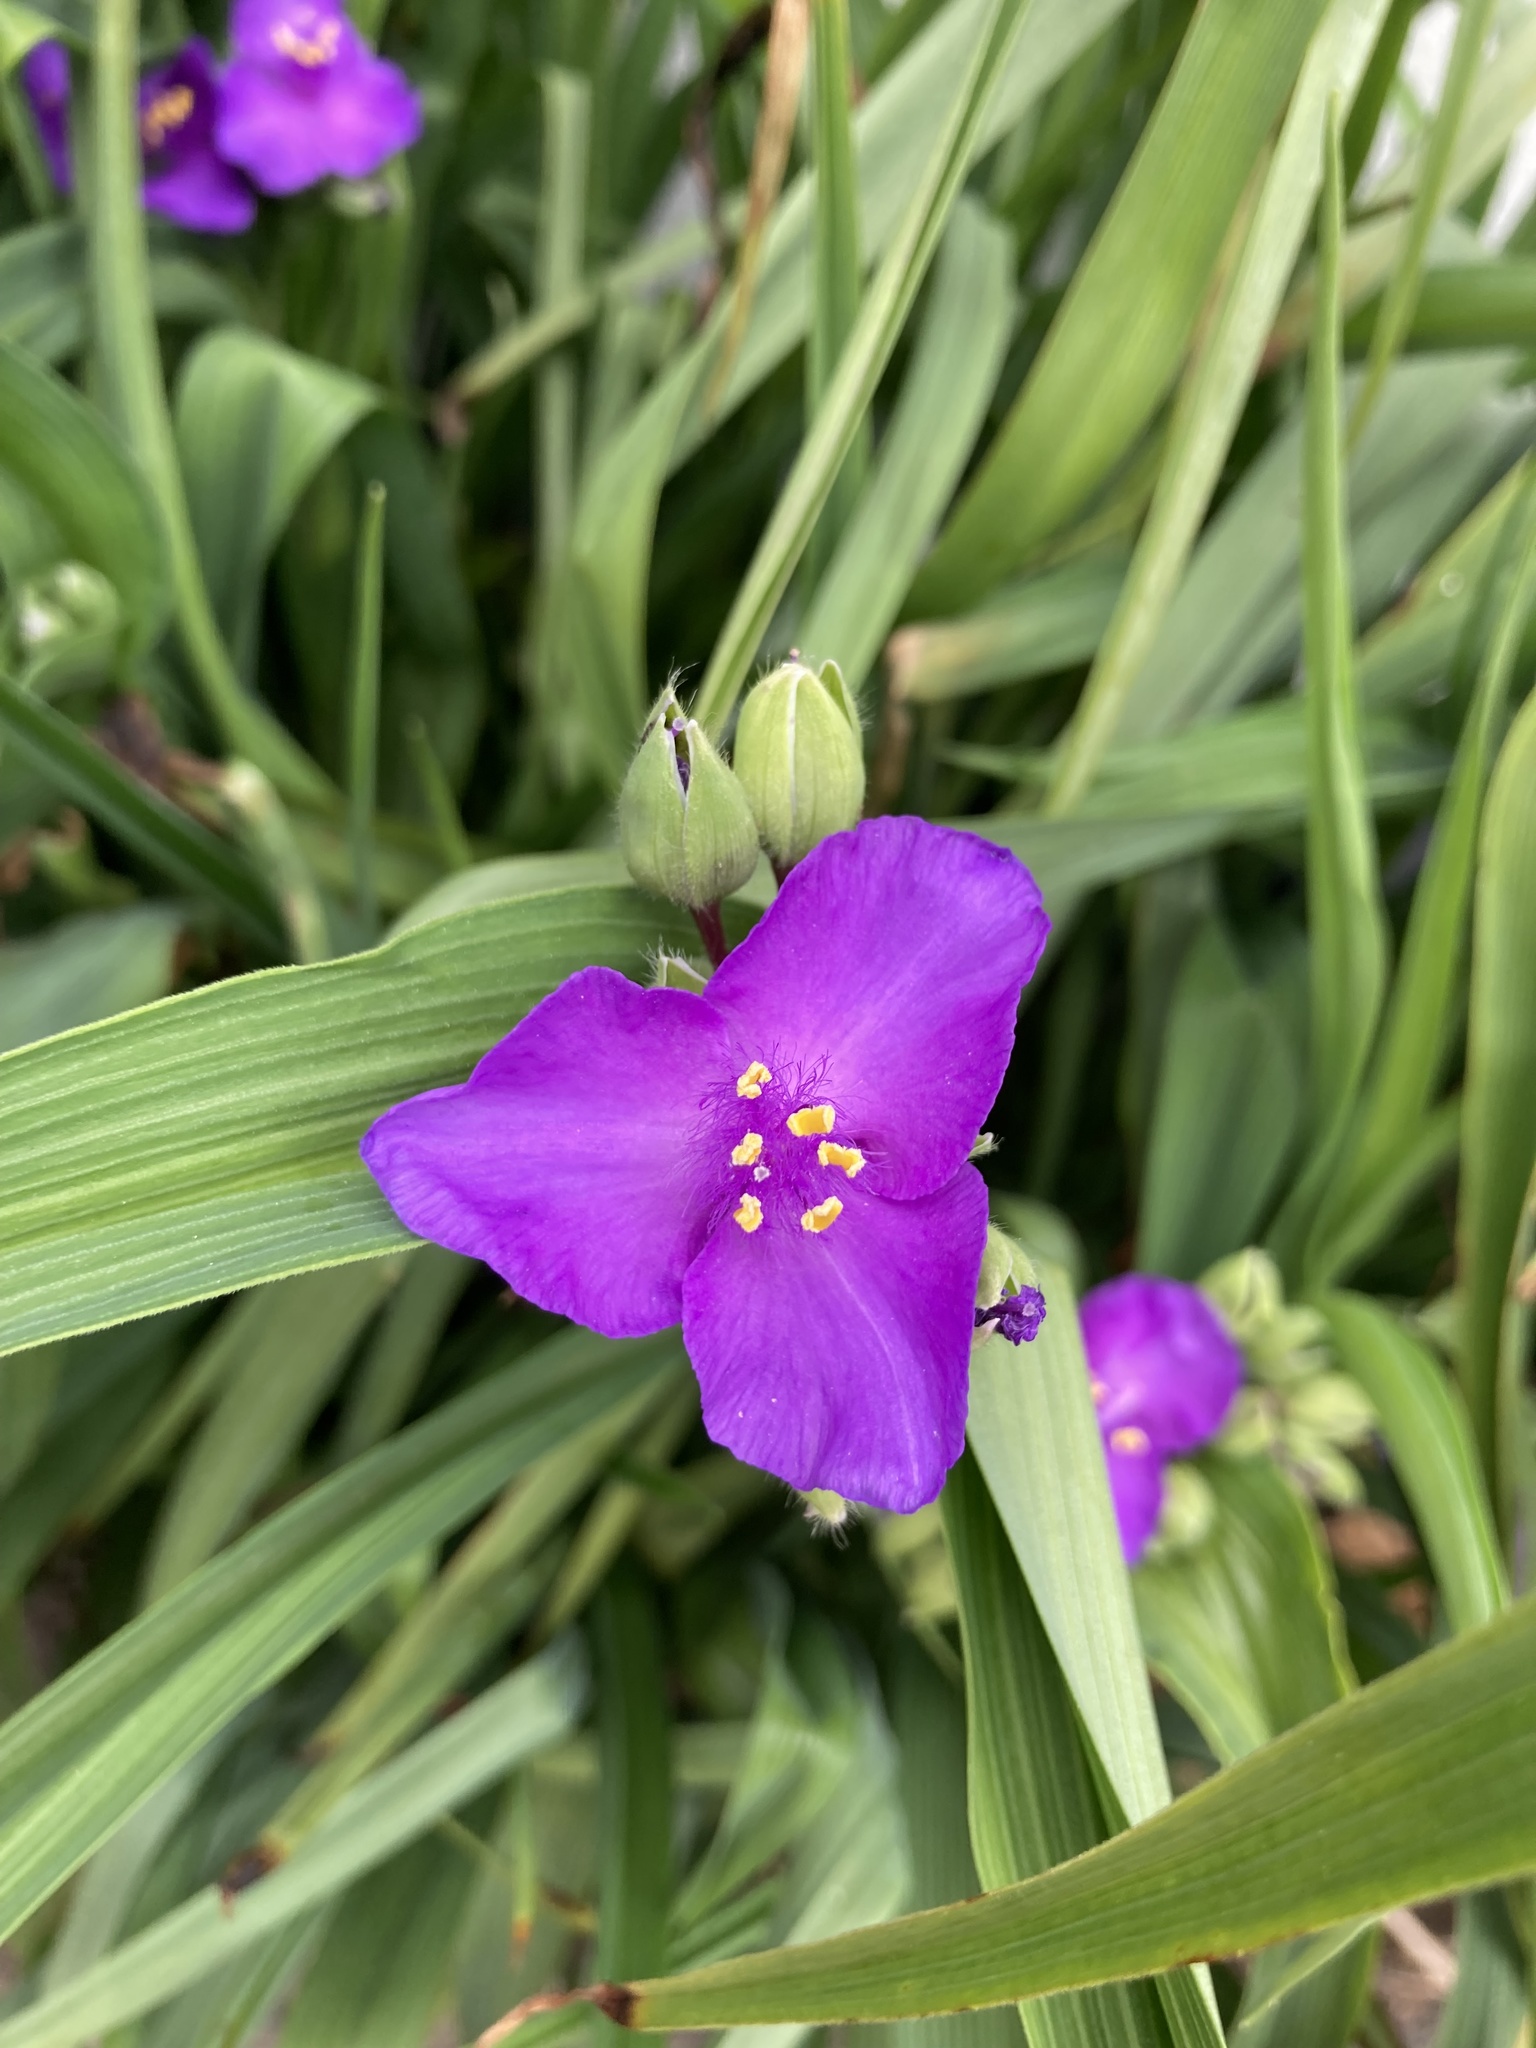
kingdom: Plantae
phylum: Tracheophyta
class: Liliopsida
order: Commelinales
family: Commelinaceae
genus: Tradescantia
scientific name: Tradescantia virginiana
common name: Spiderwort
